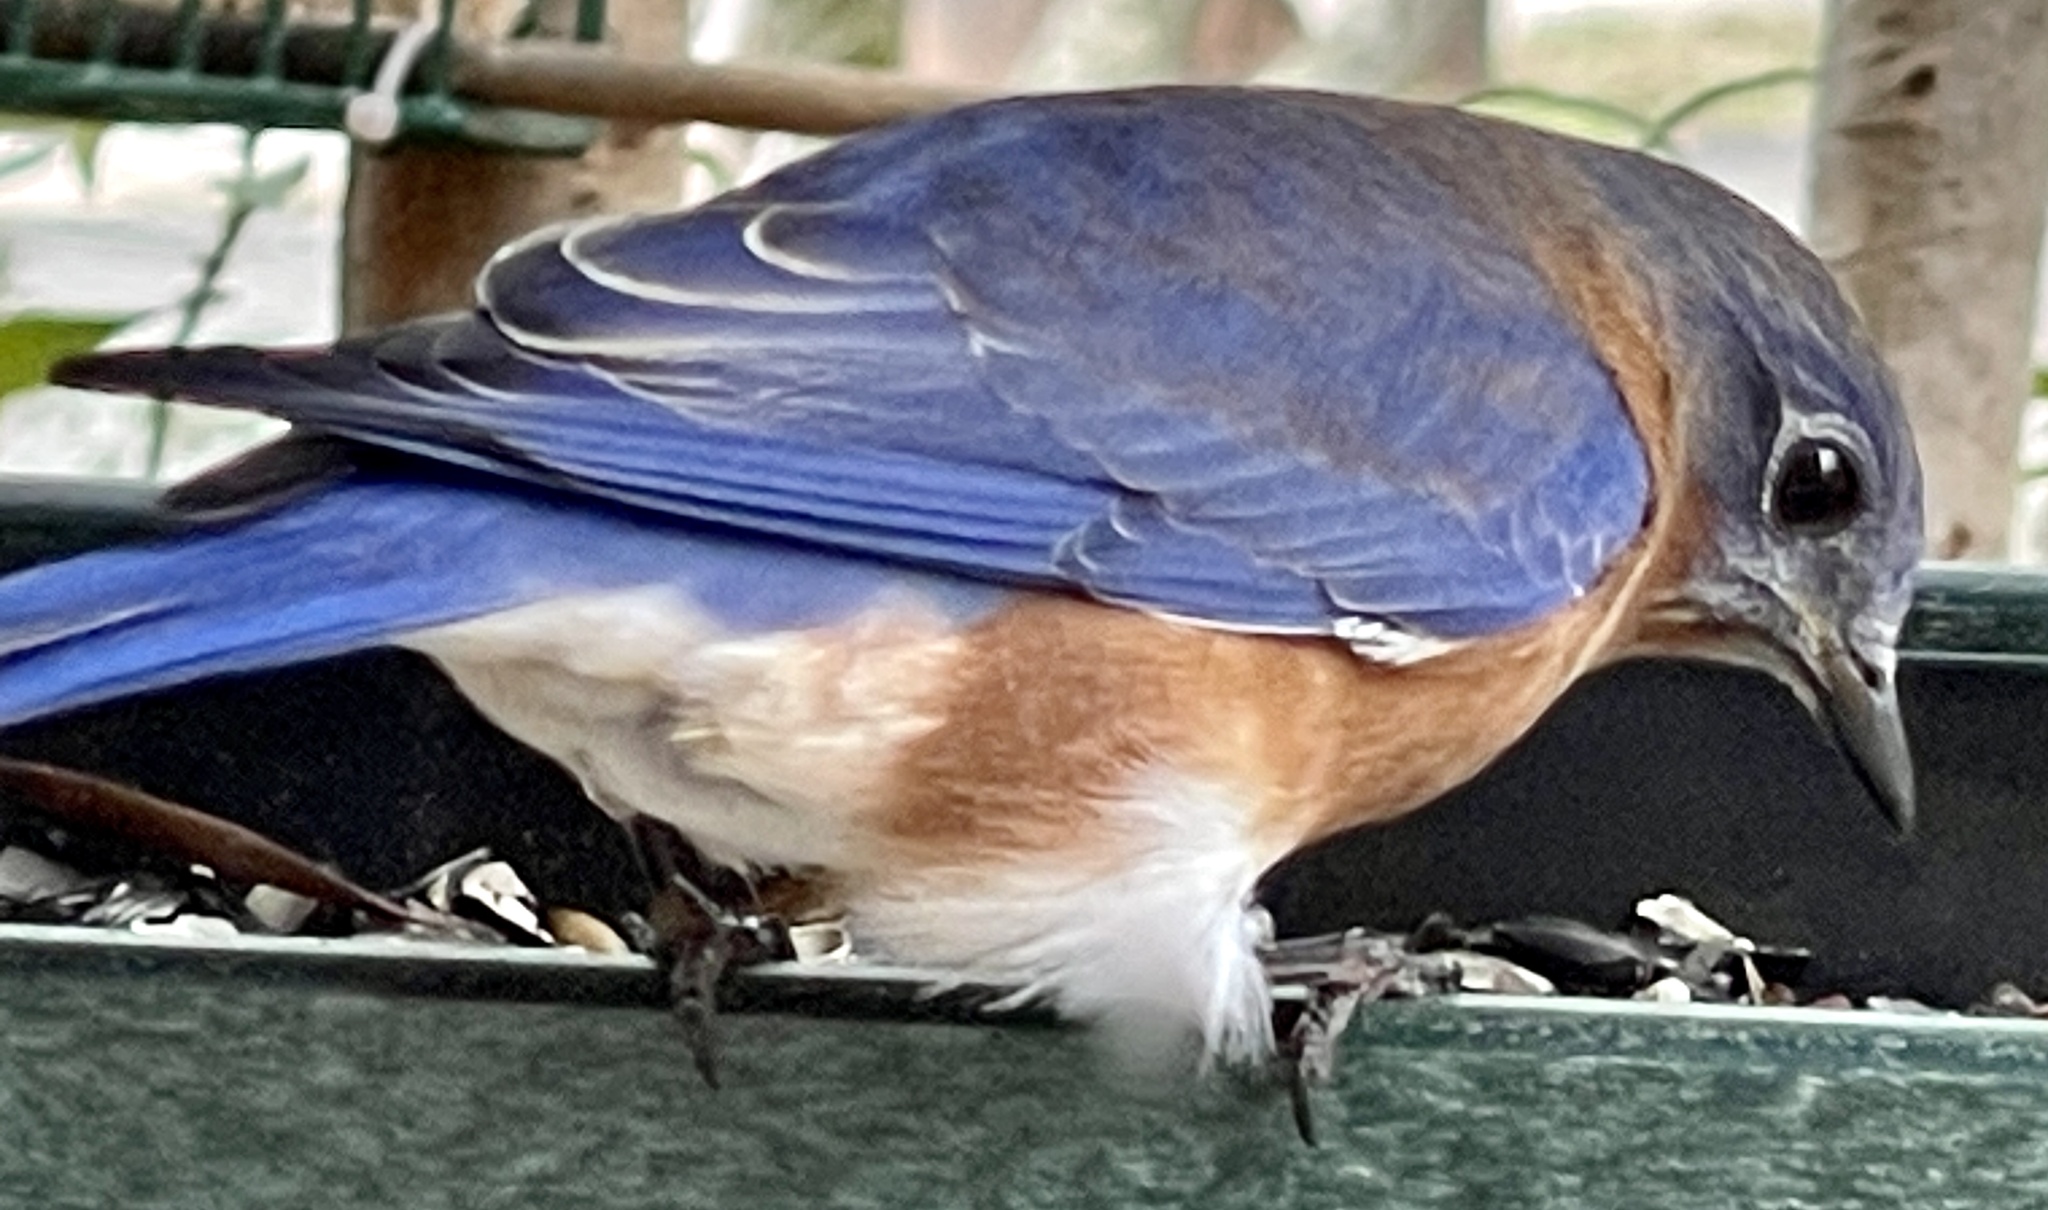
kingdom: Animalia
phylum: Chordata
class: Aves
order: Passeriformes
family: Turdidae
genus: Sialia
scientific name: Sialia sialis
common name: Eastern bluebird
